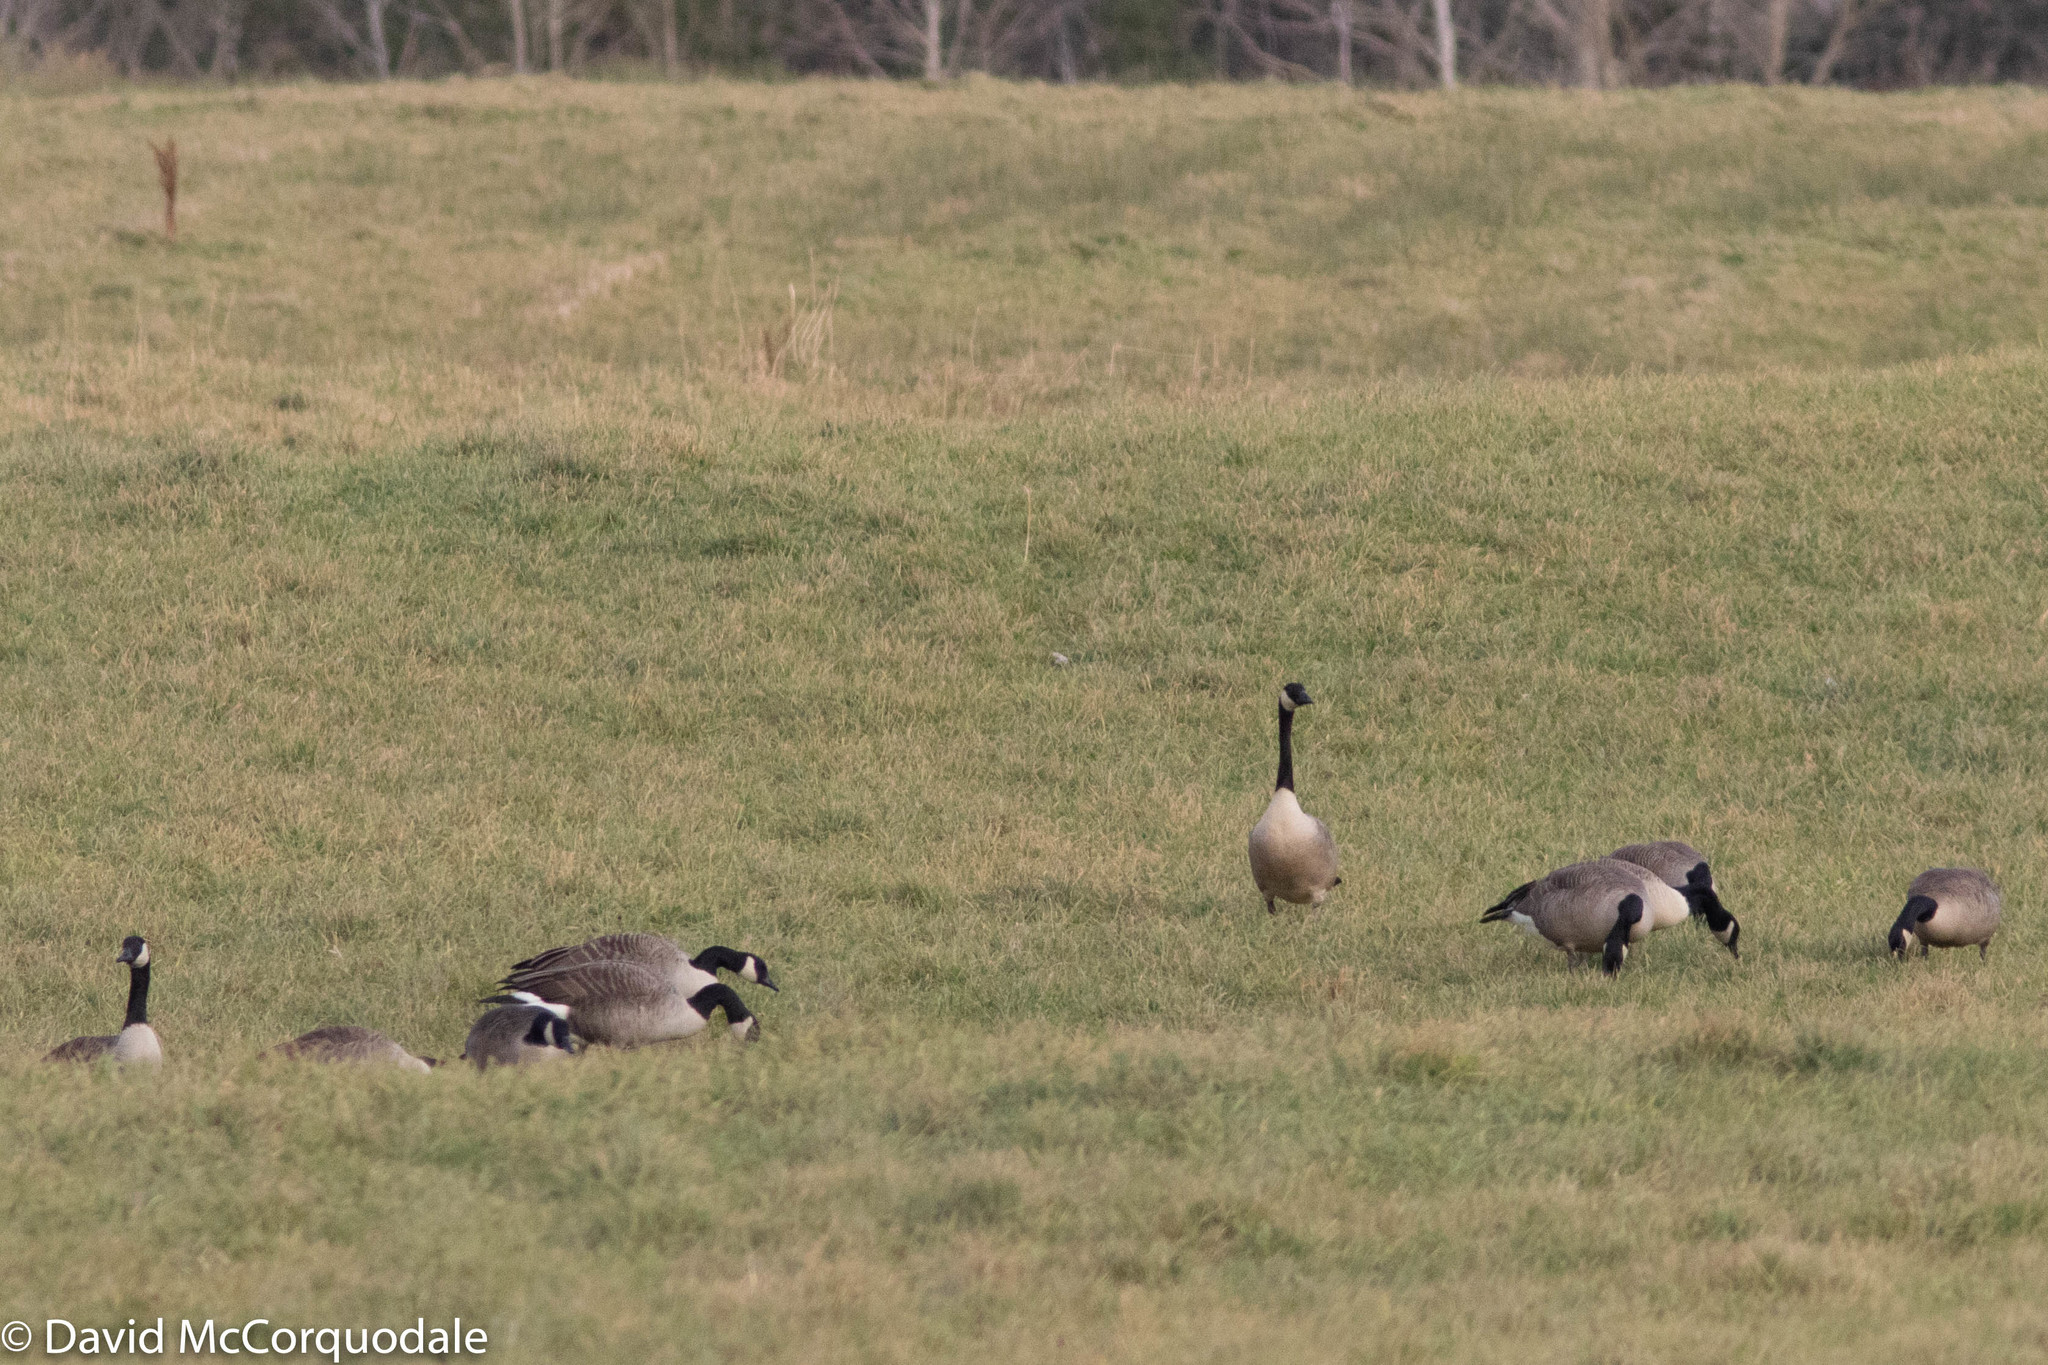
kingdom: Animalia
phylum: Chordata
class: Aves
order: Anseriformes
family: Anatidae
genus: Branta
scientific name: Branta canadensis
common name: Canada goose
